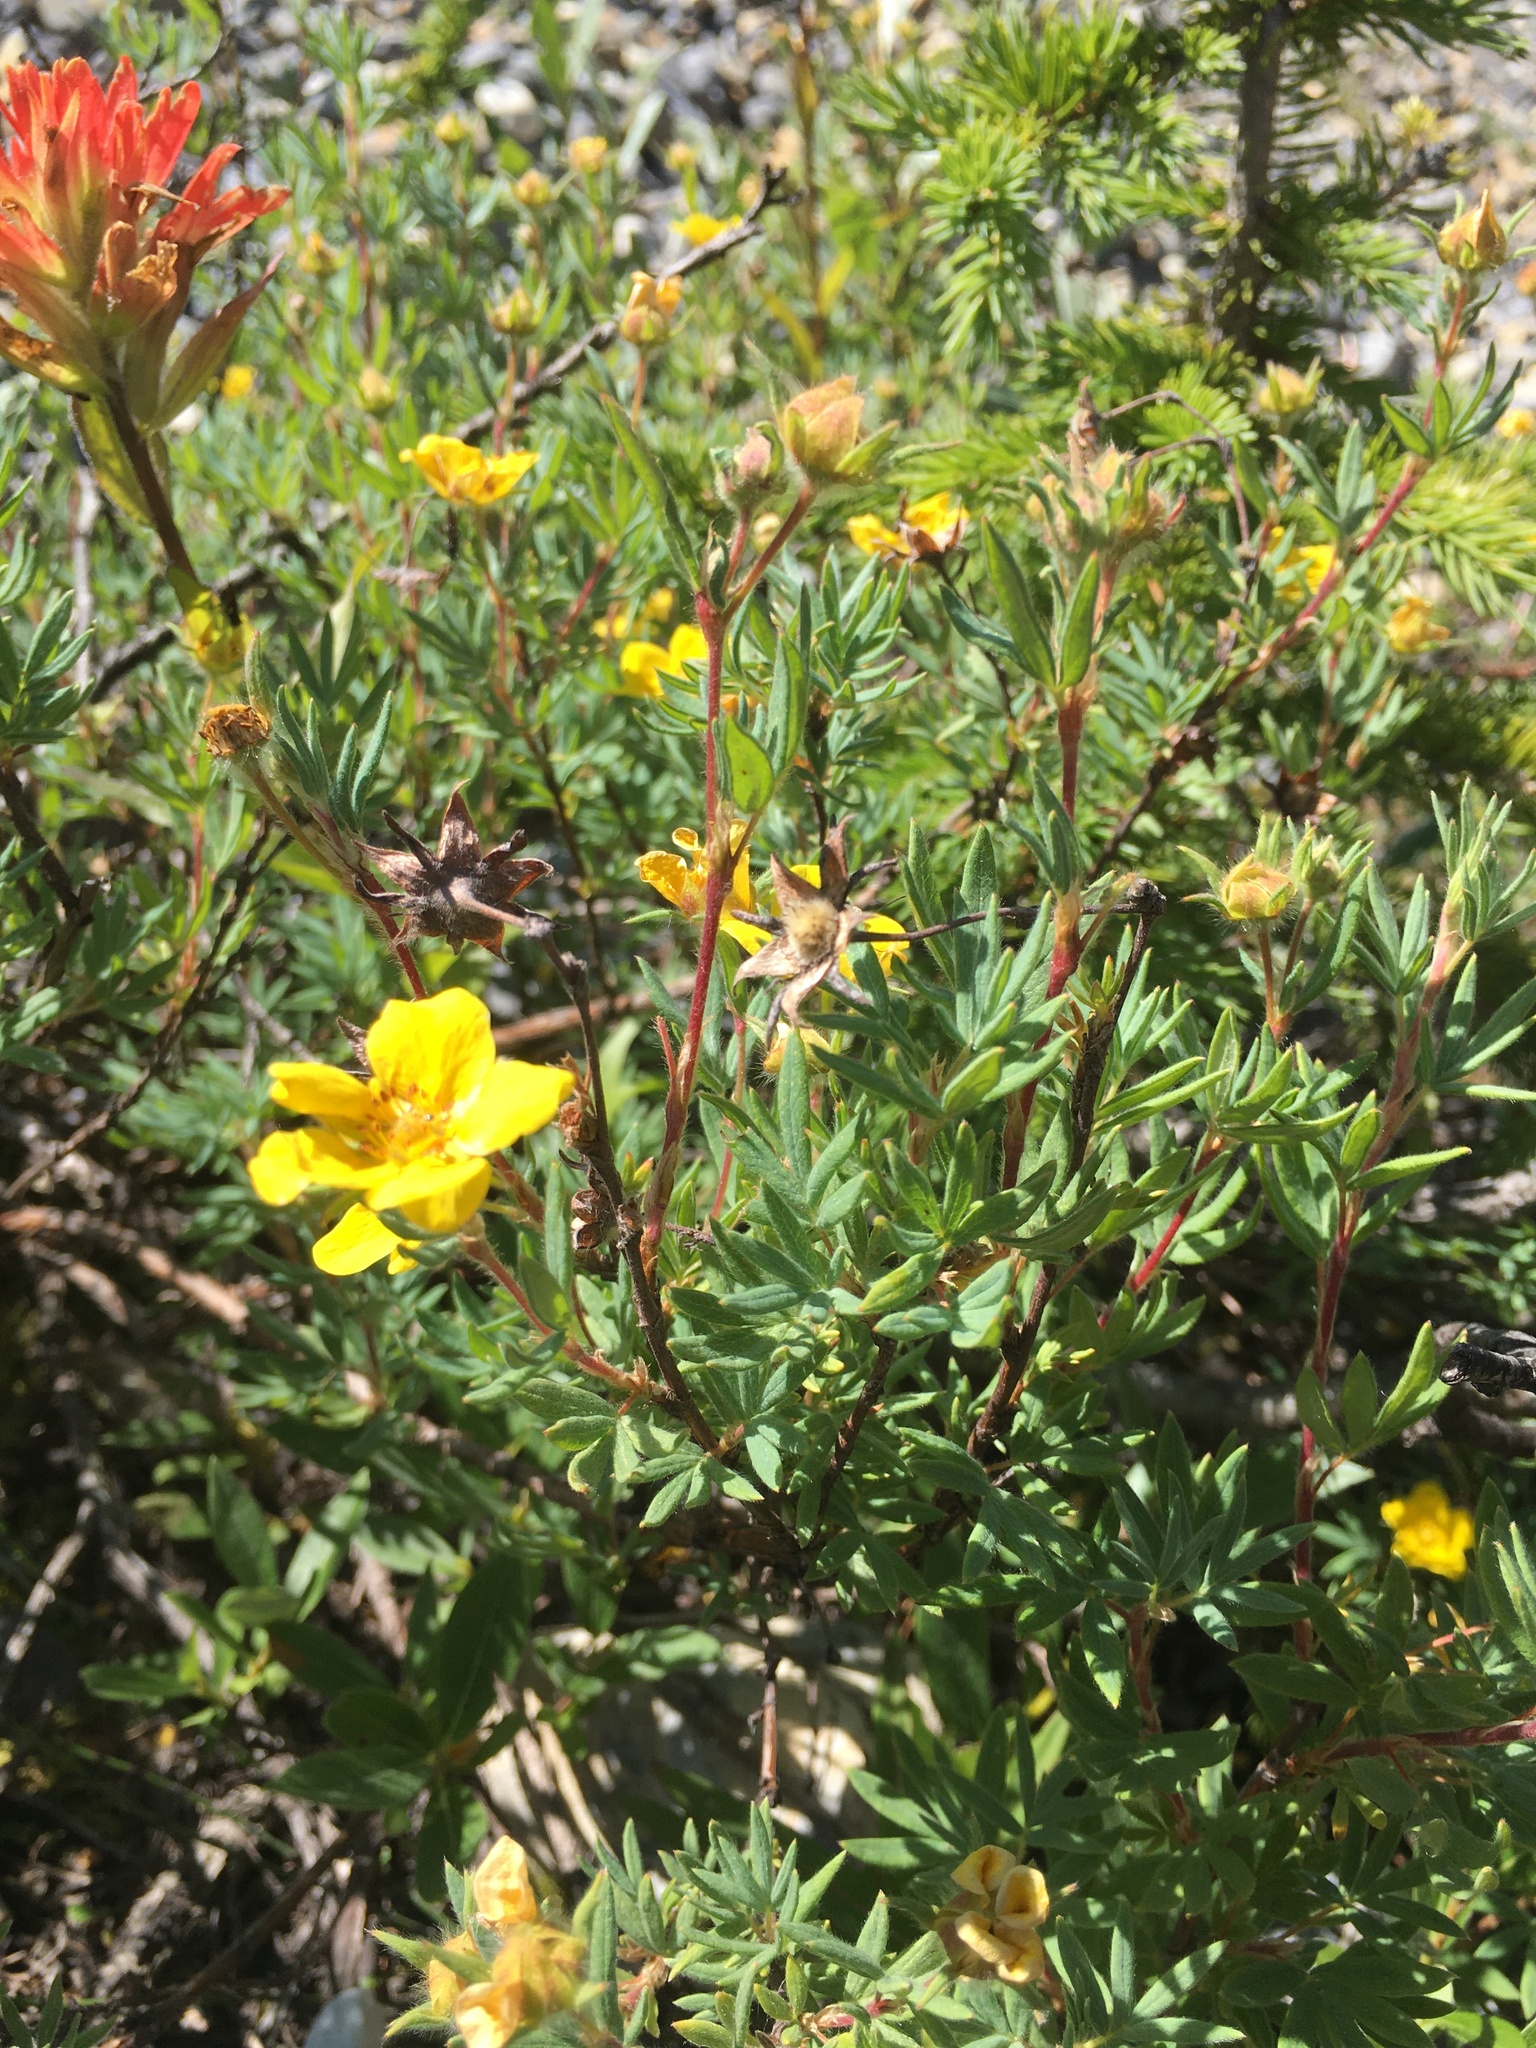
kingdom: Plantae
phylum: Tracheophyta
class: Magnoliopsida
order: Rosales
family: Rosaceae
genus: Dasiphora
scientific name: Dasiphora fruticosa
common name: Shrubby cinquefoil
